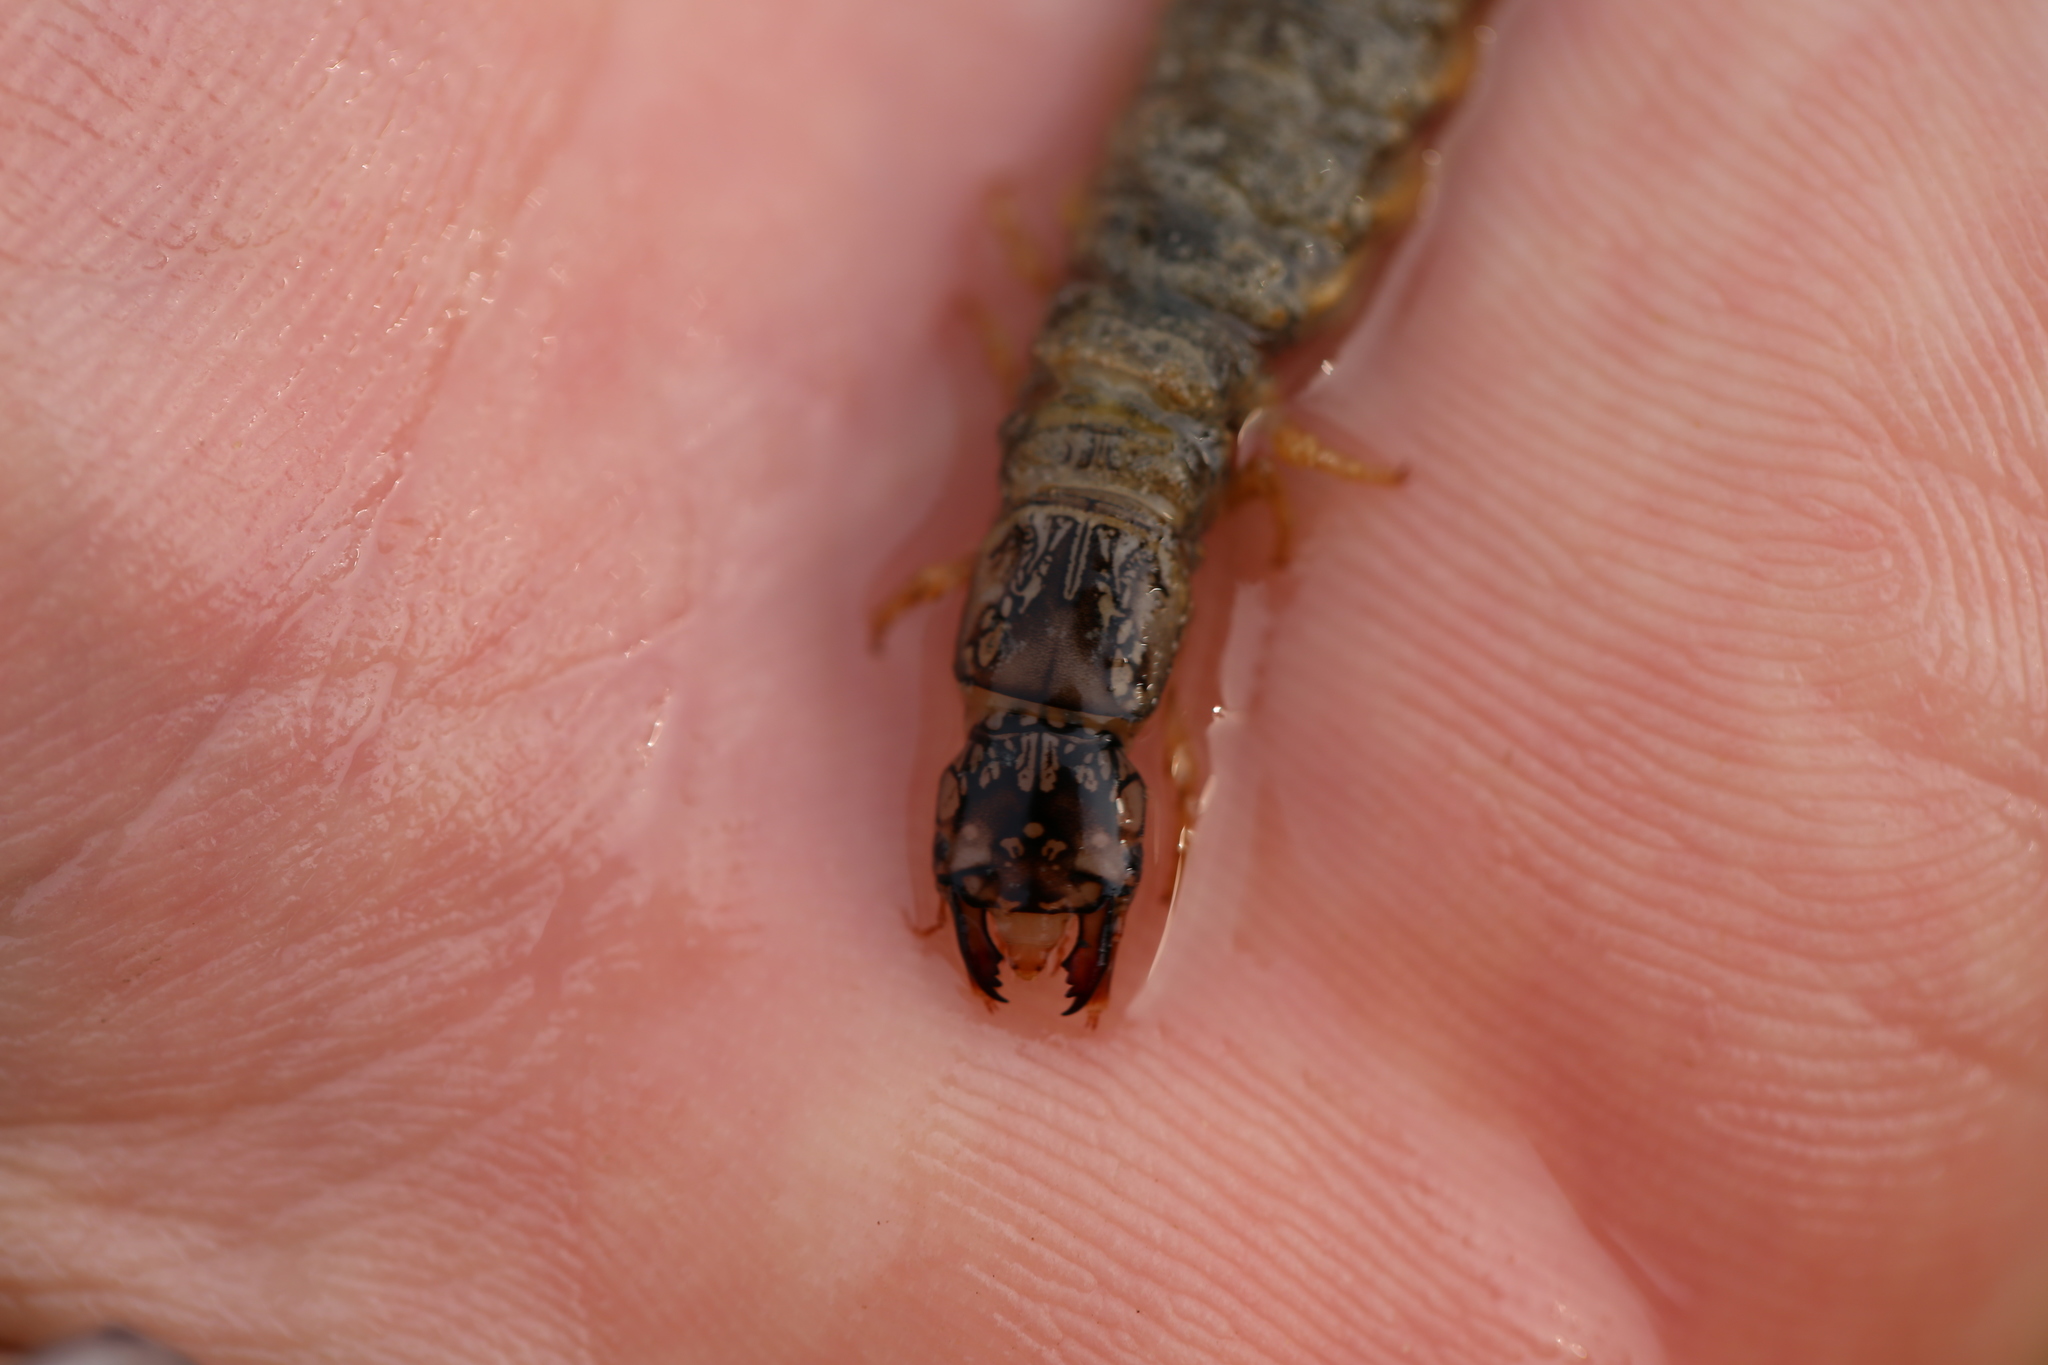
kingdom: Animalia
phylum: Arthropoda
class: Insecta
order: Megaloptera
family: Corydalidae
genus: Corydalus
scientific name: Corydalus cornutus
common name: Dobsonfly
